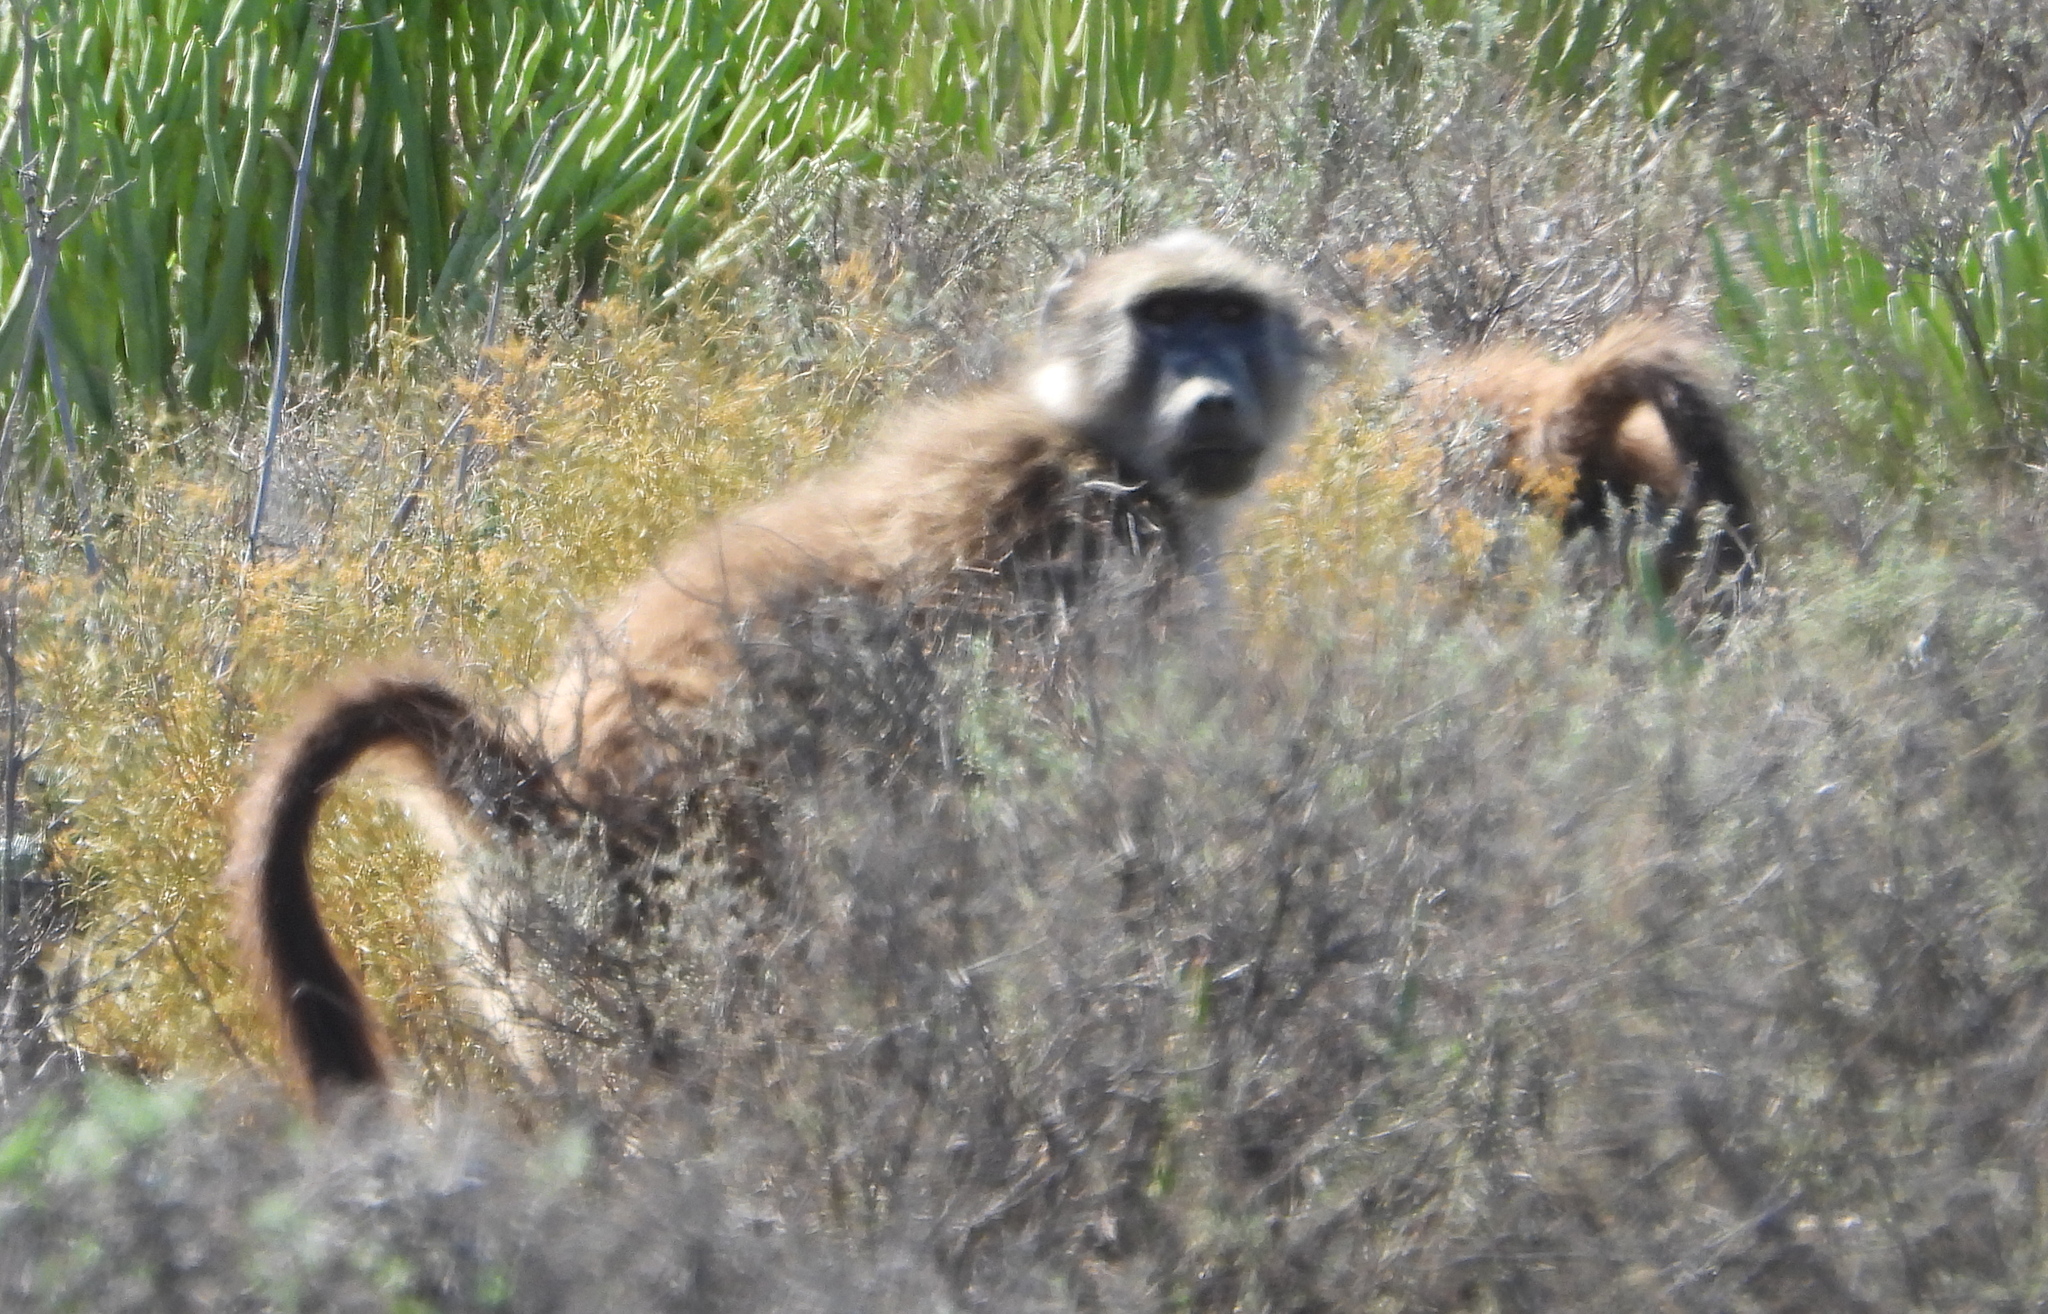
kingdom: Animalia
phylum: Chordata
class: Mammalia
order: Primates
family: Cercopithecidae
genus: Papio
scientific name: Papio ursinus
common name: Chacma baboon
